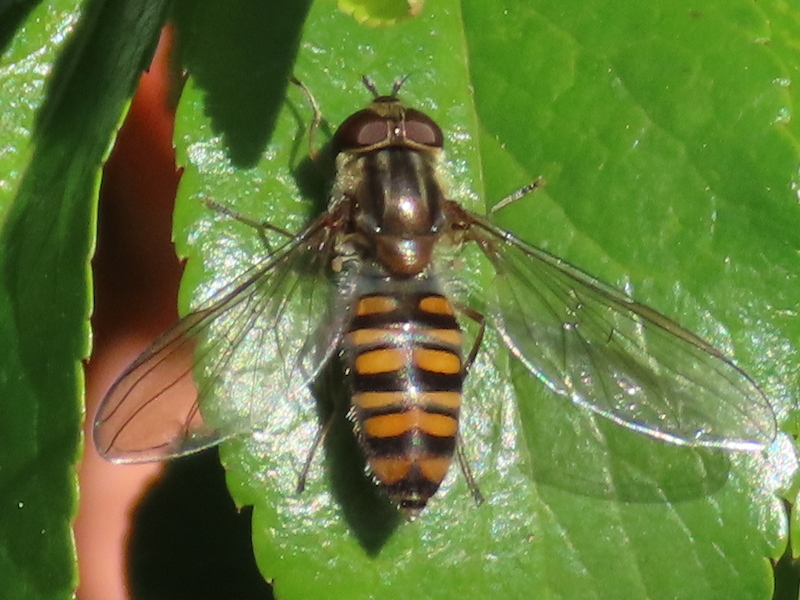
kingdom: Animalia
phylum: Arthropoda
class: Insecta
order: Diptera
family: Syrphidae
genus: Episyrphus
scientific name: Episyrphus balteatus
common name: Marmalade hoverfly
